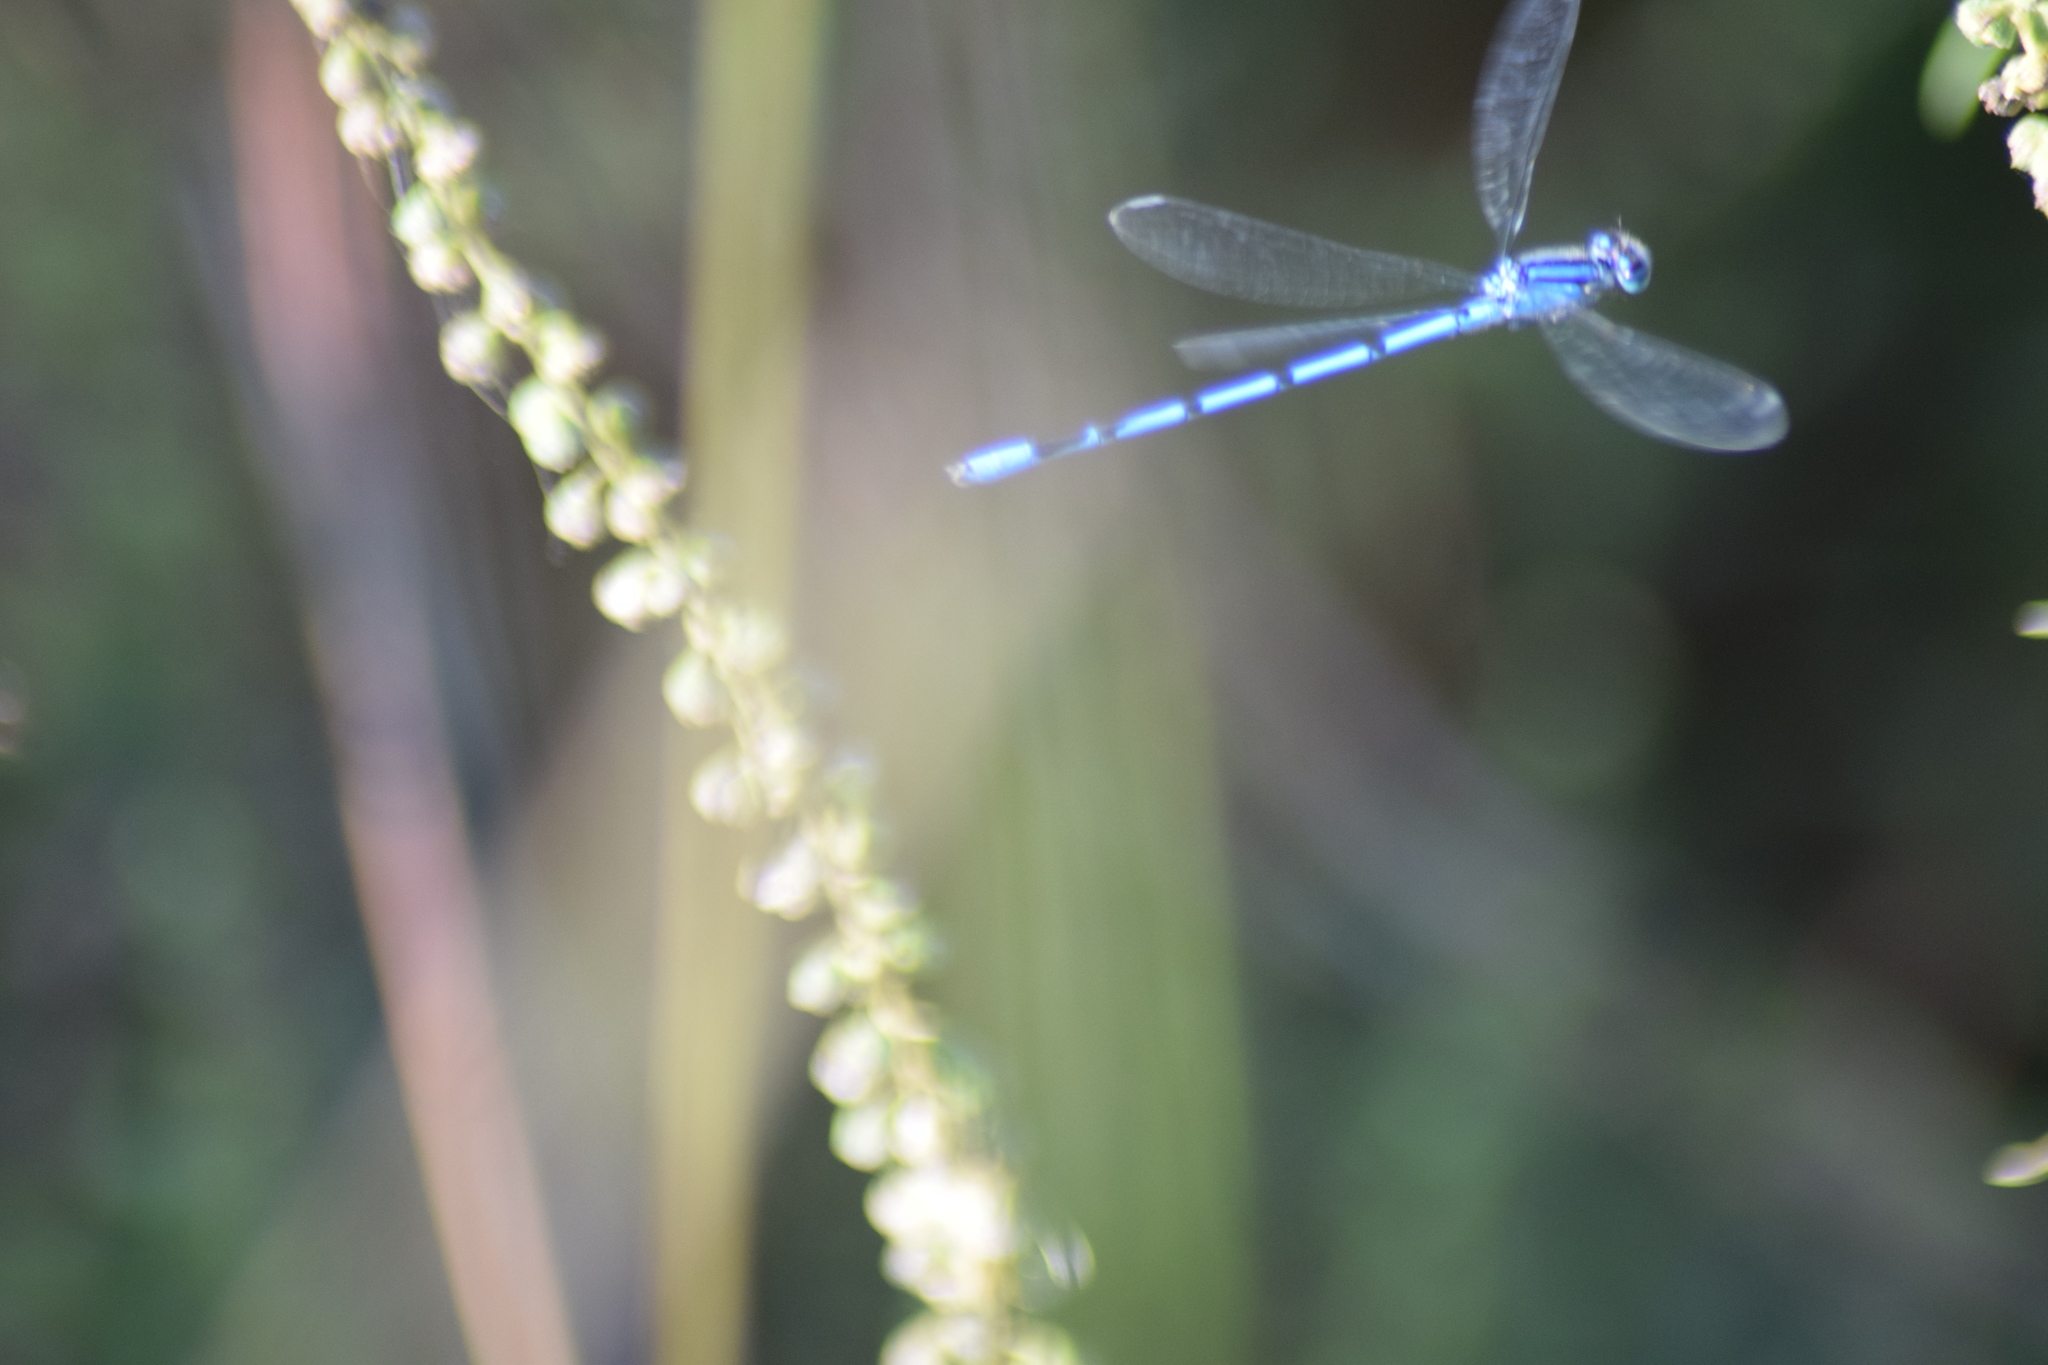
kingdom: Animalia
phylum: Arthropoda
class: Insecta
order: Odonata
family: Coenagrionidae
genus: Enallagma
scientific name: Enallagma civile
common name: Damselfly
